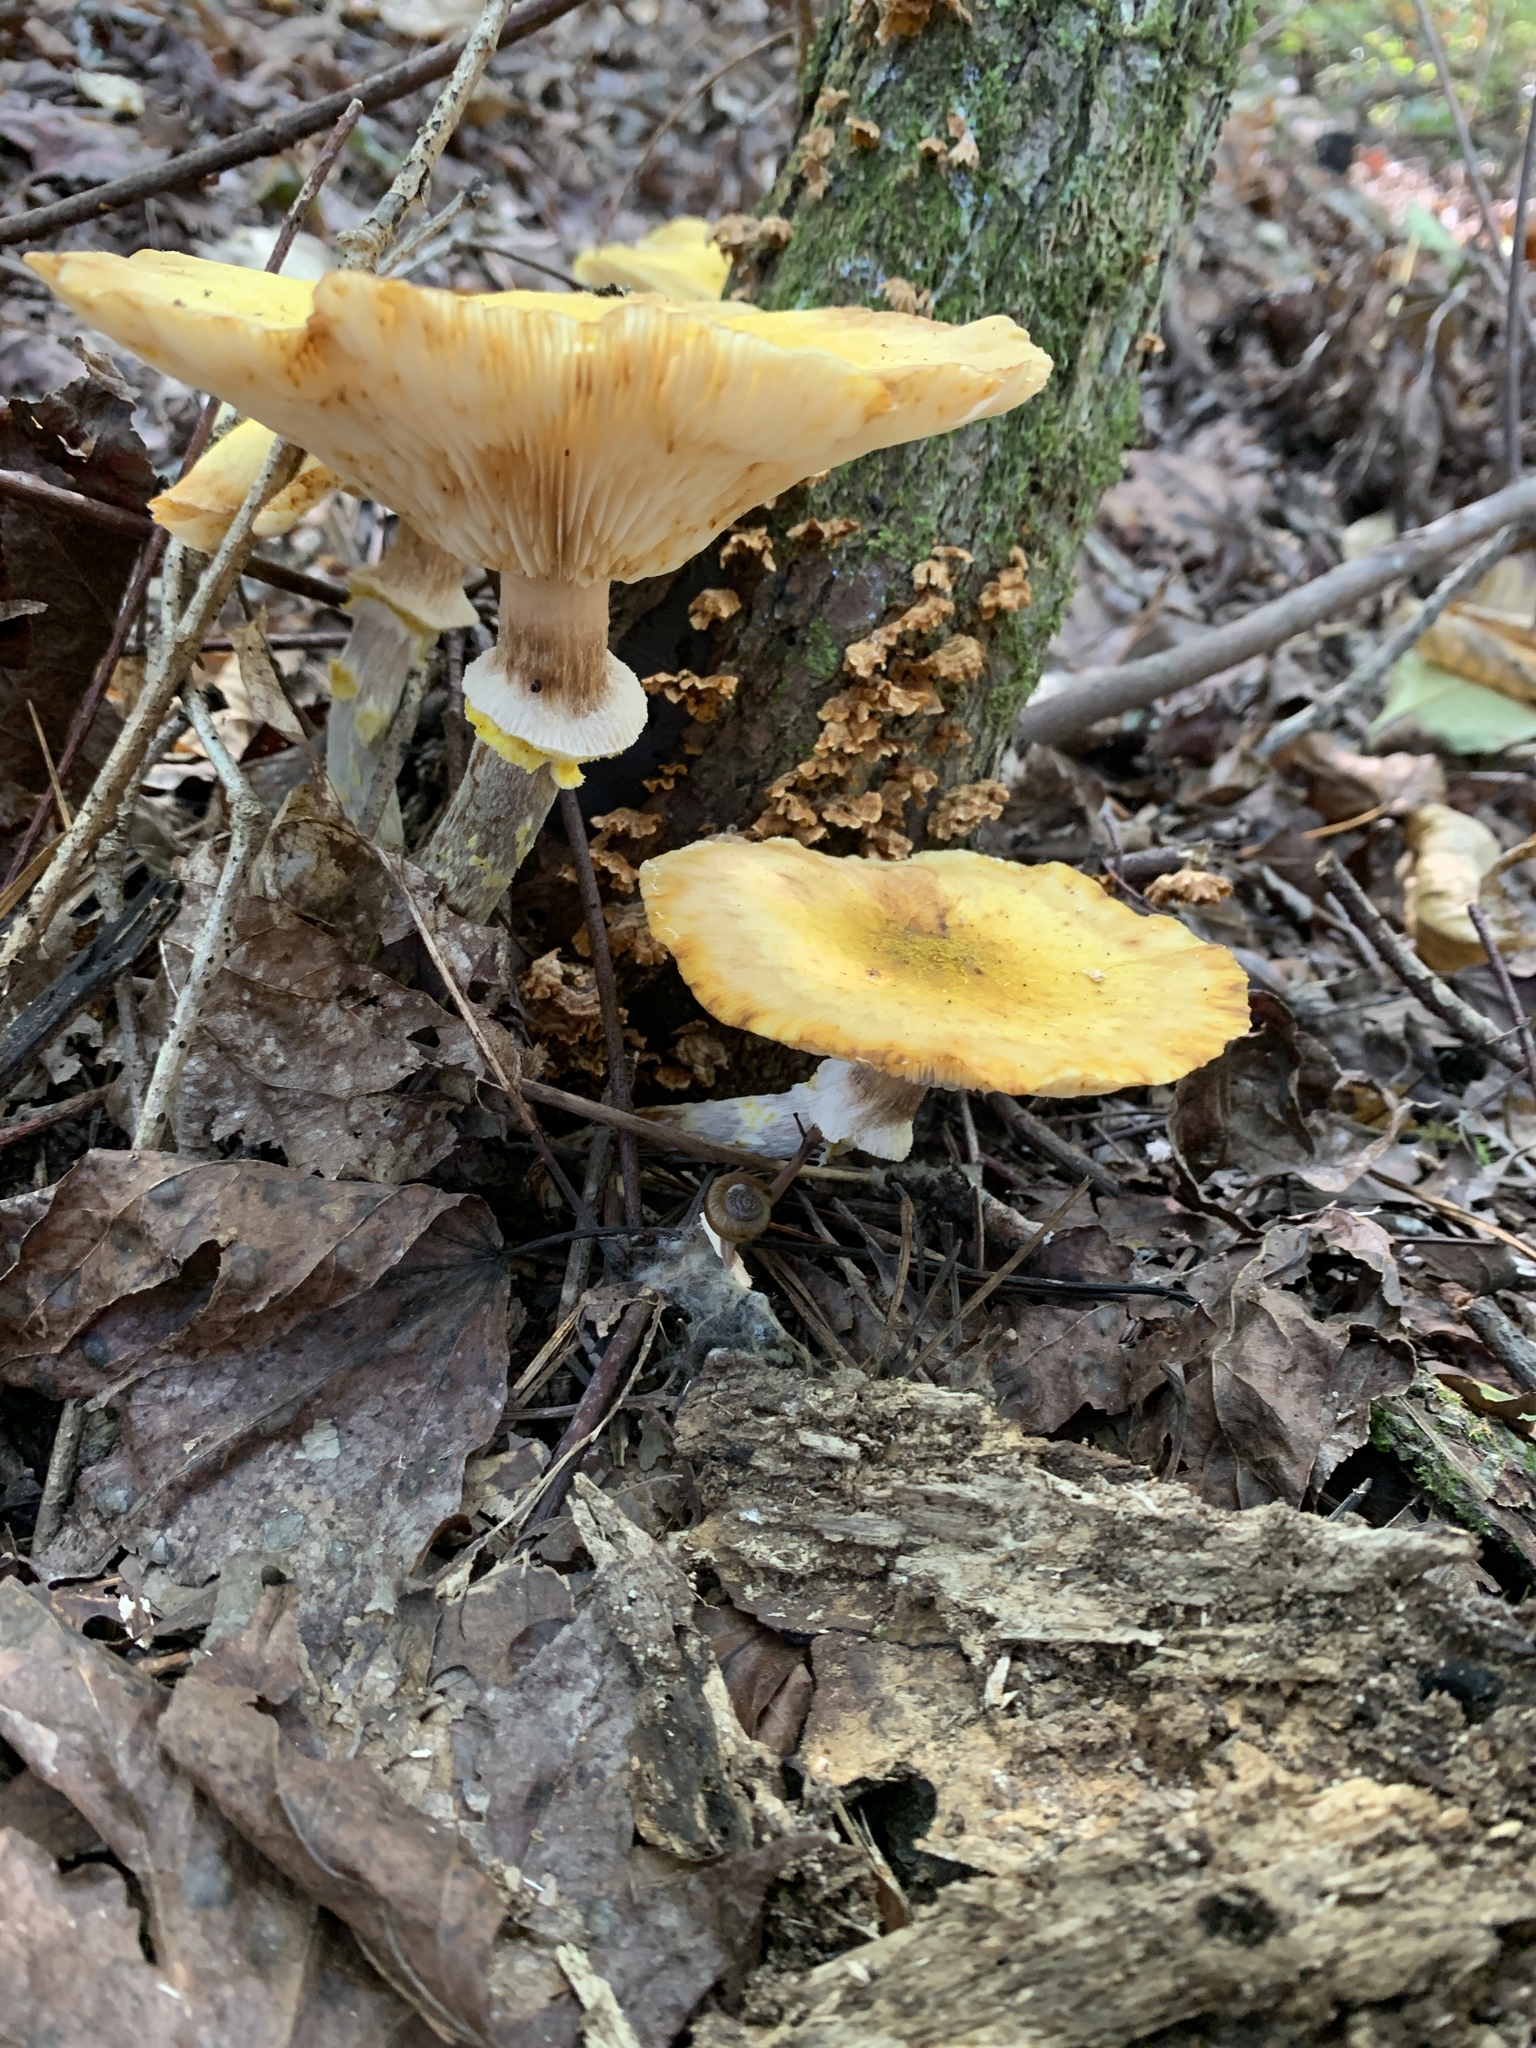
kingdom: Fungi
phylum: Basidiomycota
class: Agaricomycetes
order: Agaricales
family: Physalacriaceae
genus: Armillaria
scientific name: Armillaria mellea
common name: Honey fungus
